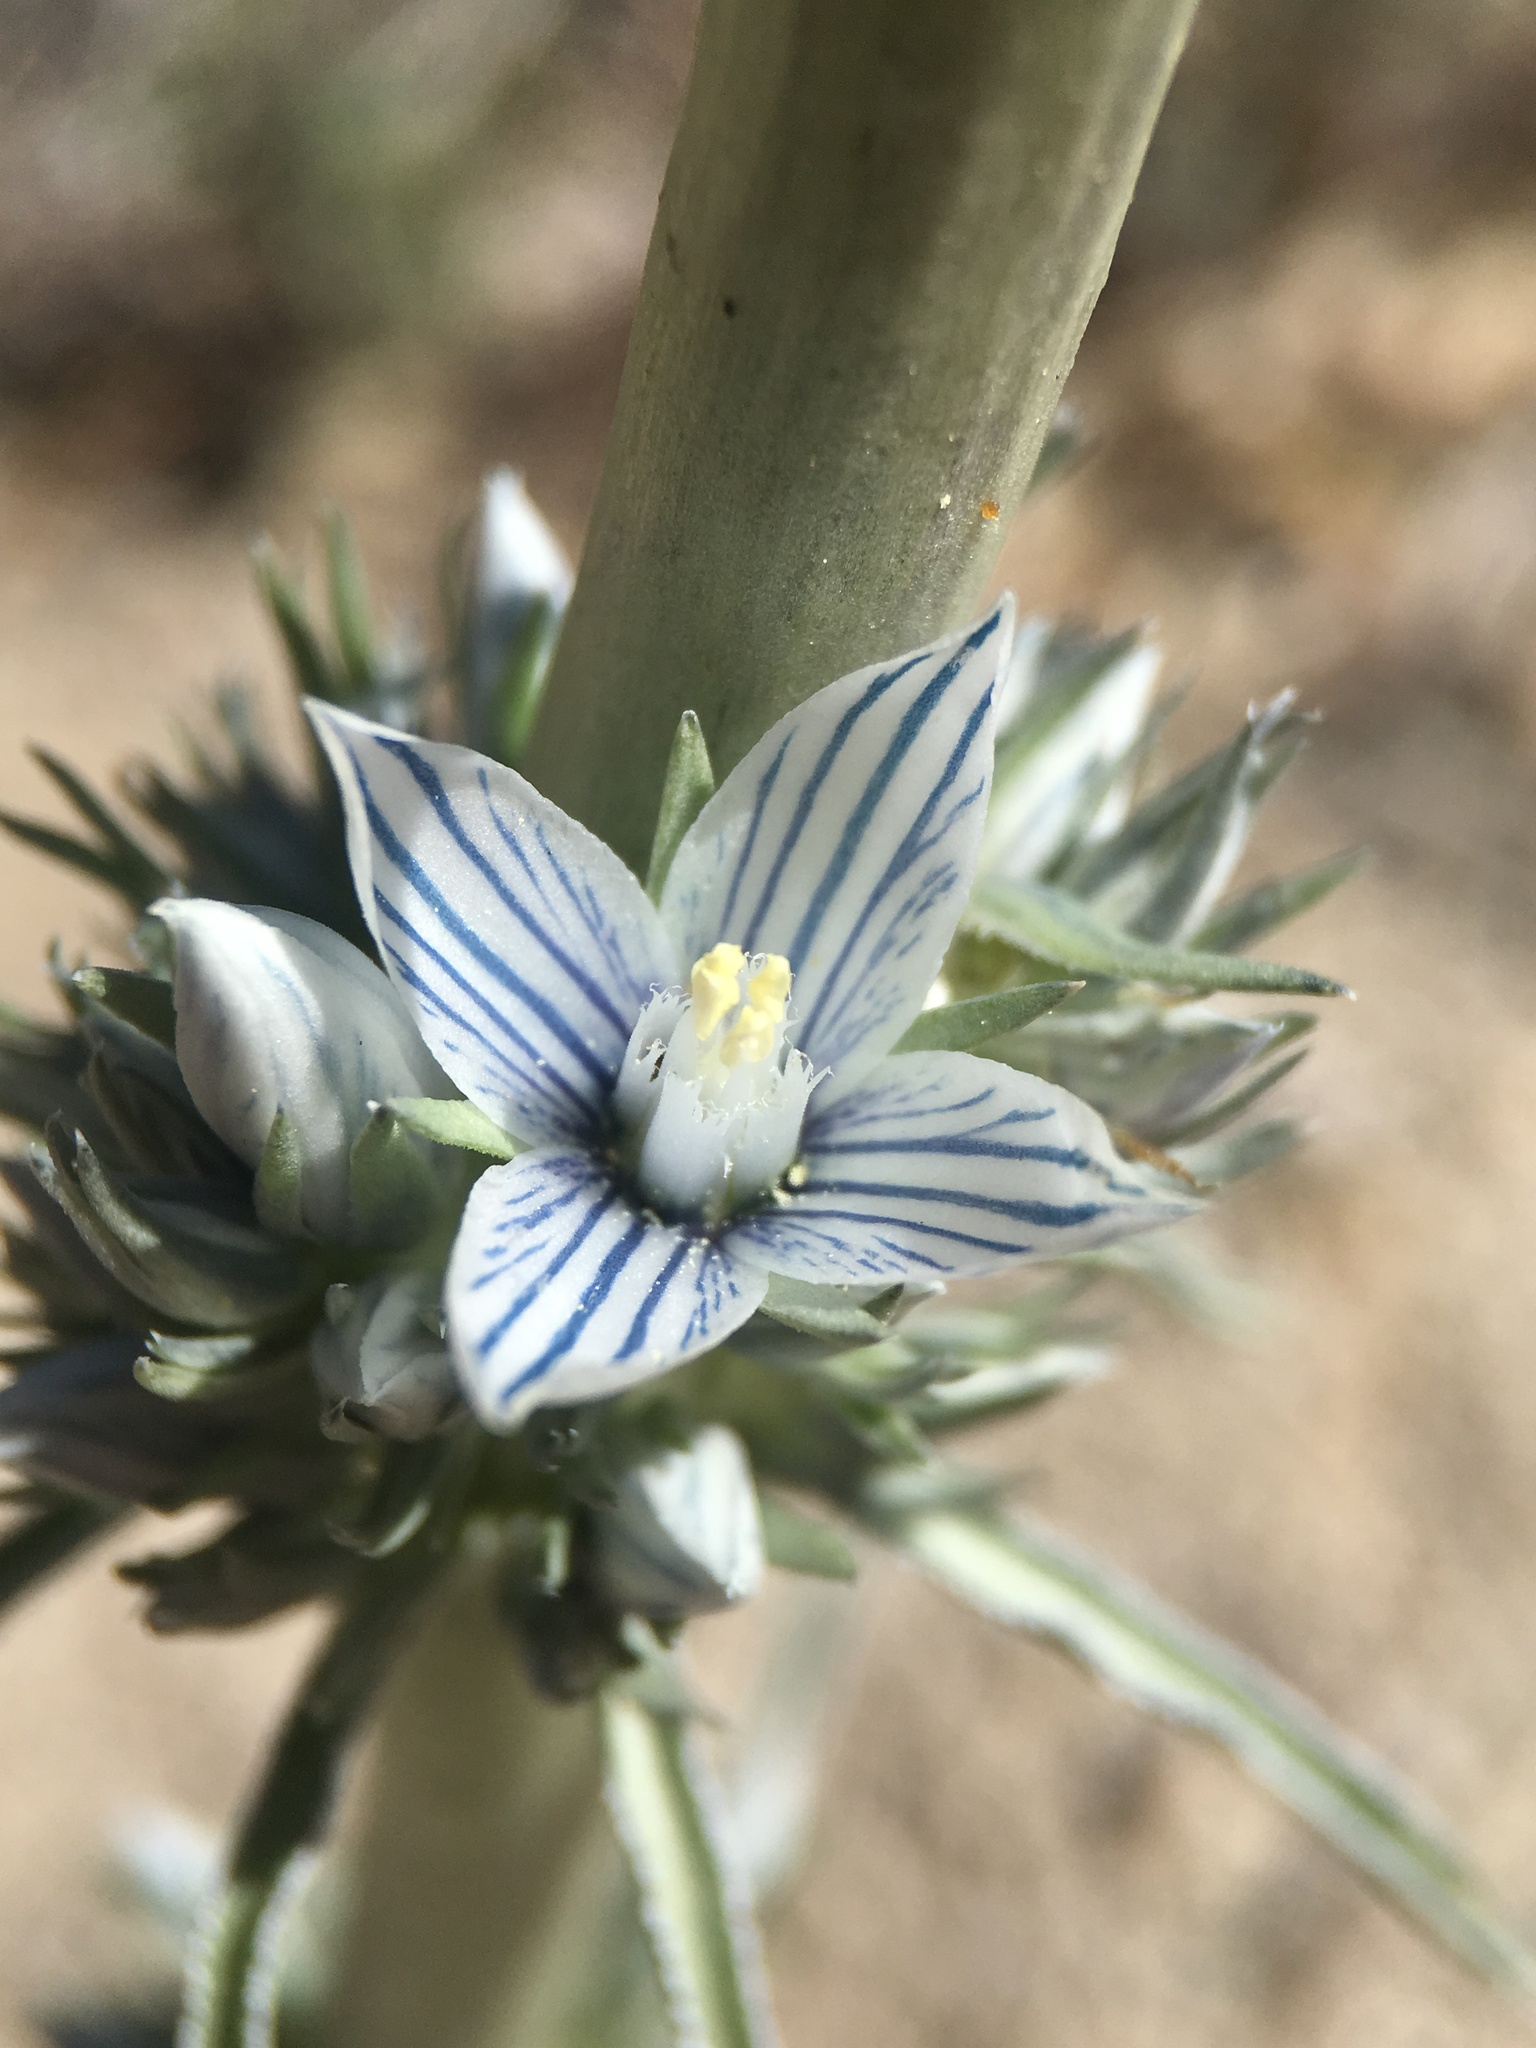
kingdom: Plantae
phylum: Tracheophyta
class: Magnoliopsida
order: Gentianales
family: Gentianaceae
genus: Frasera
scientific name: Frasera tubulosa
